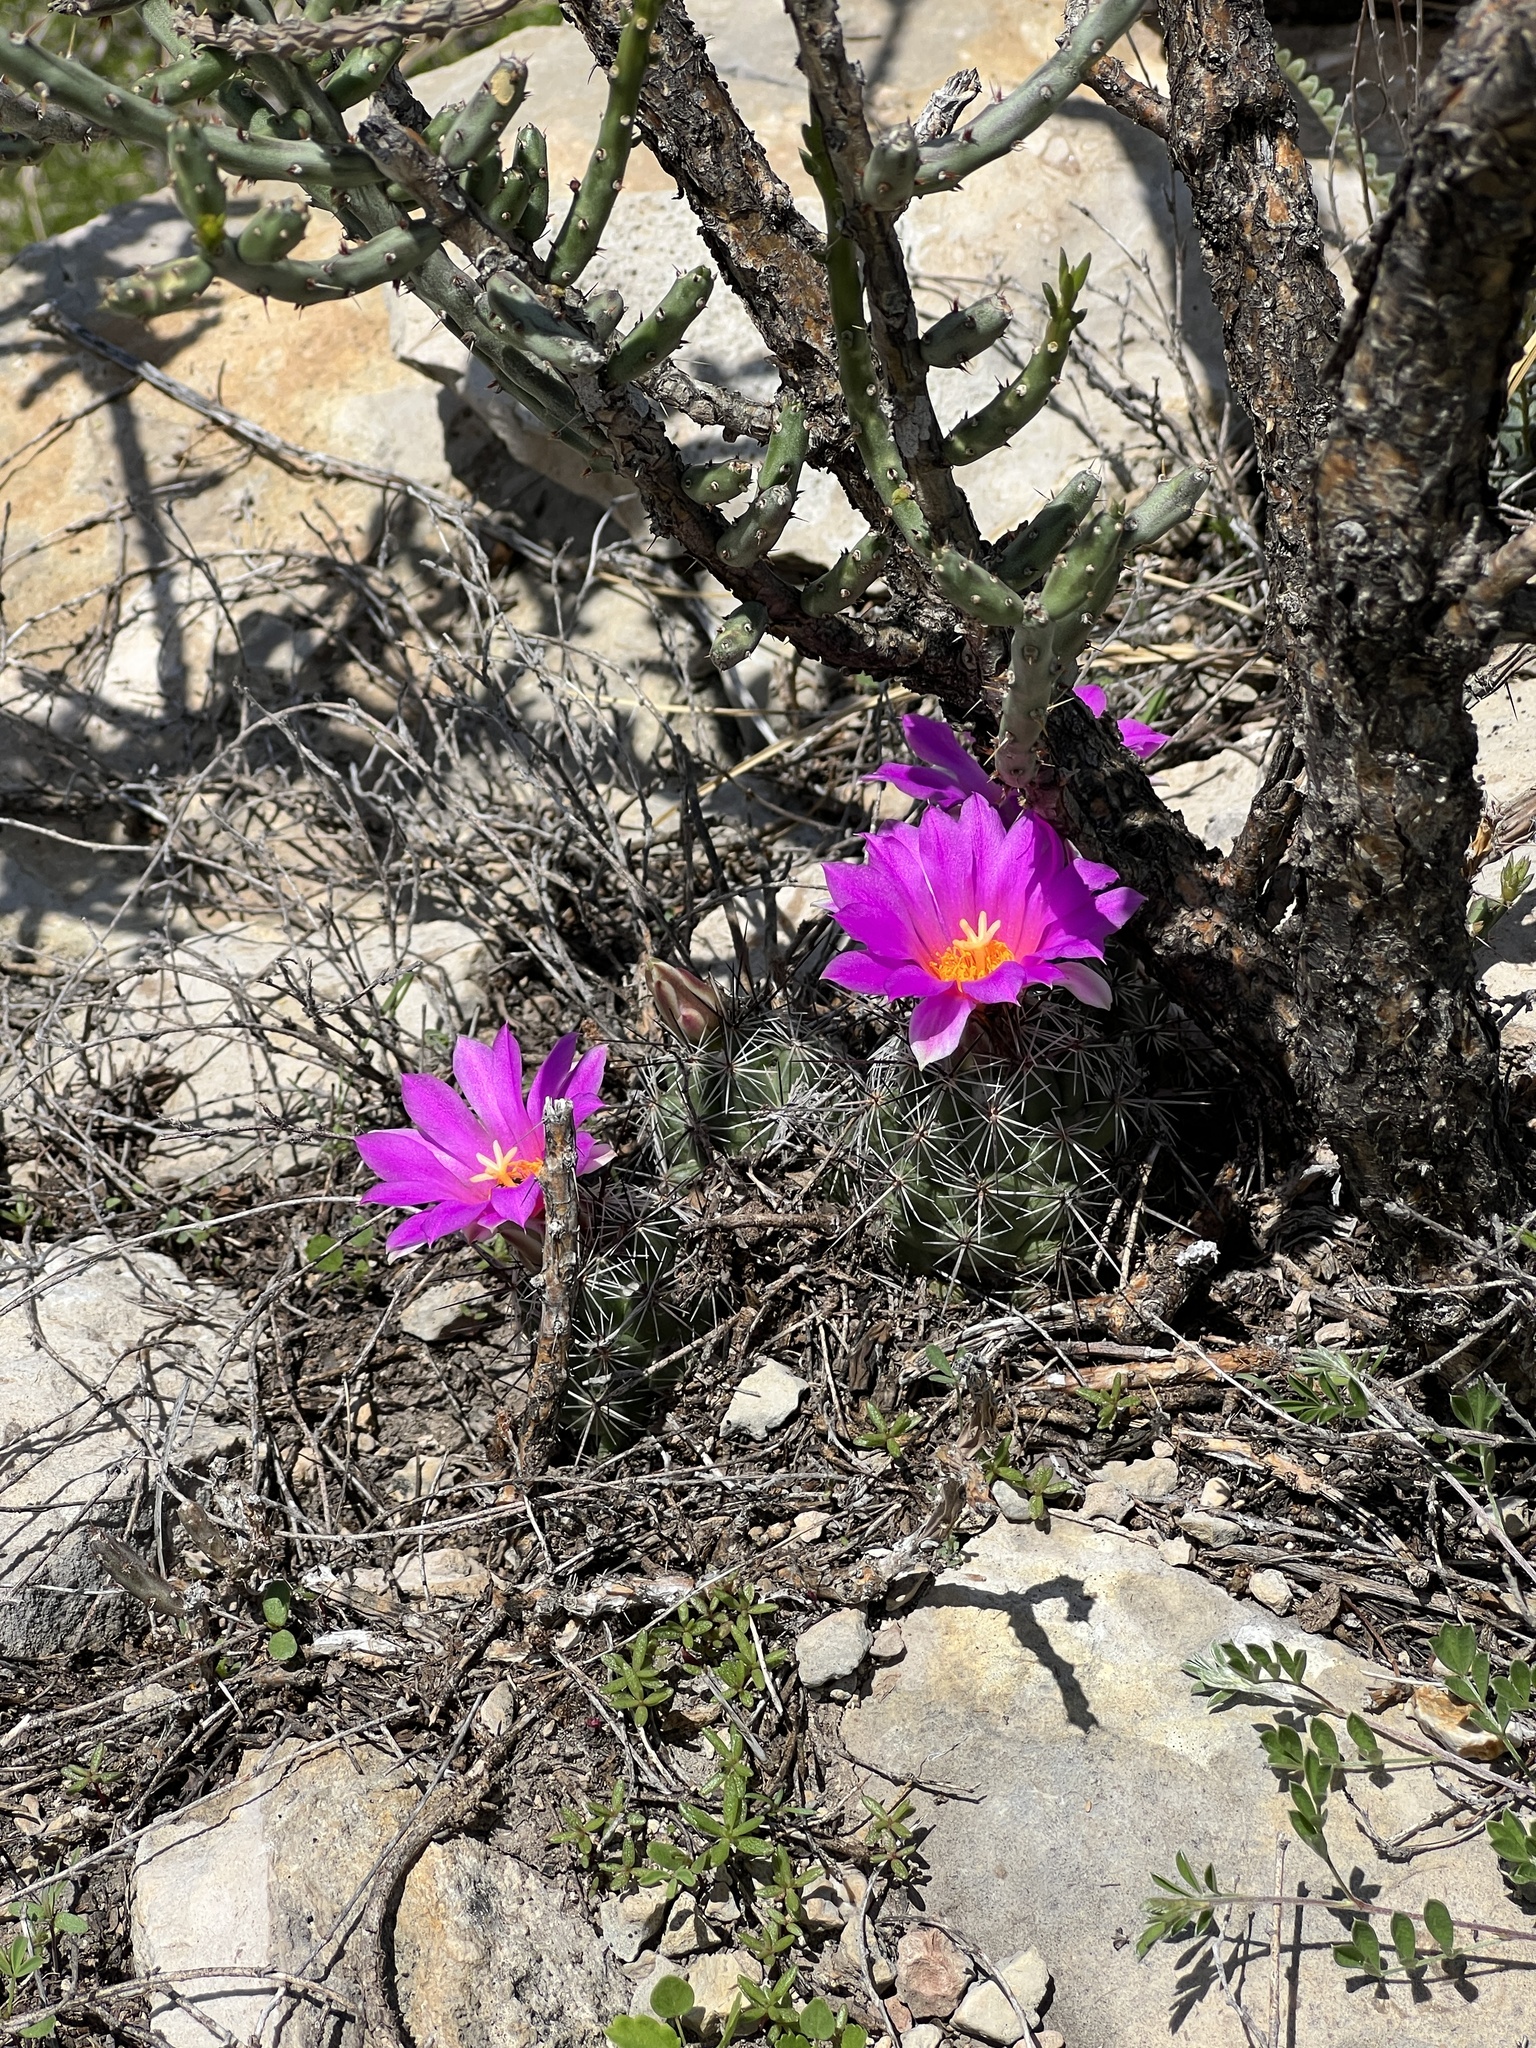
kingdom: Plantae
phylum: Tracheophyta
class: Magnoliopsida
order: Caryophyllales
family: Cactaceae
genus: Cochemiea
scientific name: Cochemiea conoidea
